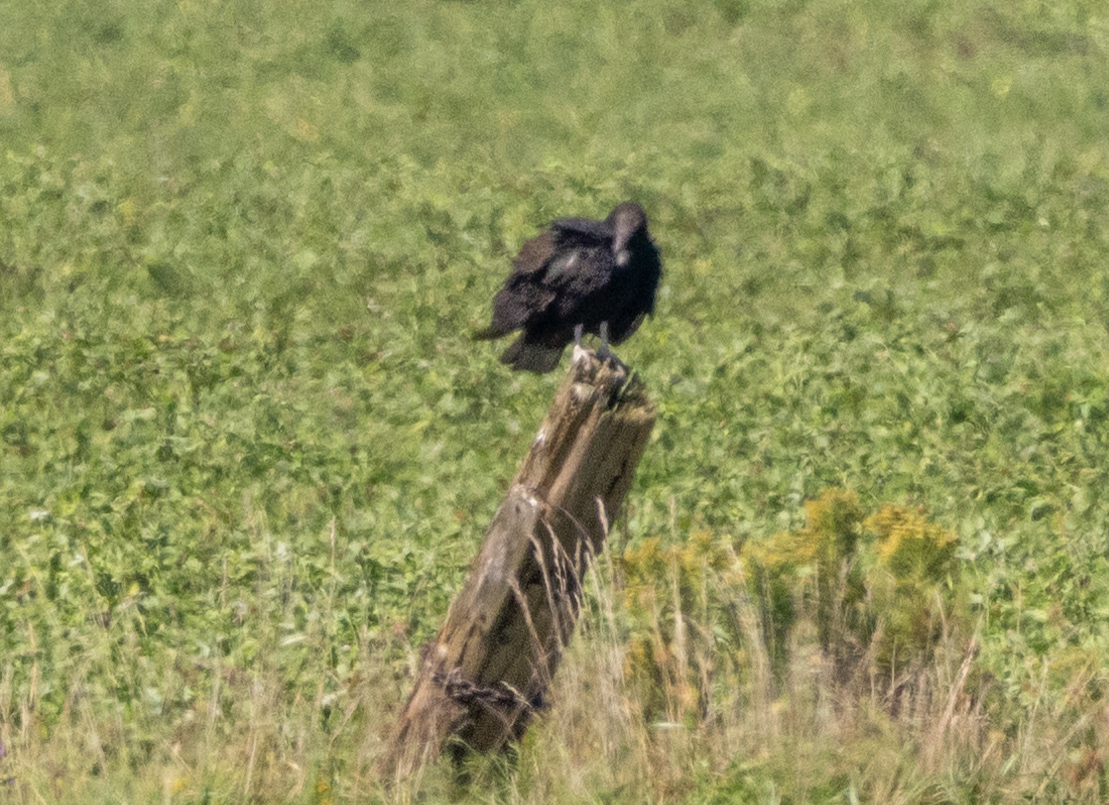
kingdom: Animalia
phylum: Chordata
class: Aves
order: Accipitriformes
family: Cathartidae
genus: Cathartes
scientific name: Cathartes aura
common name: Turkey vulture
